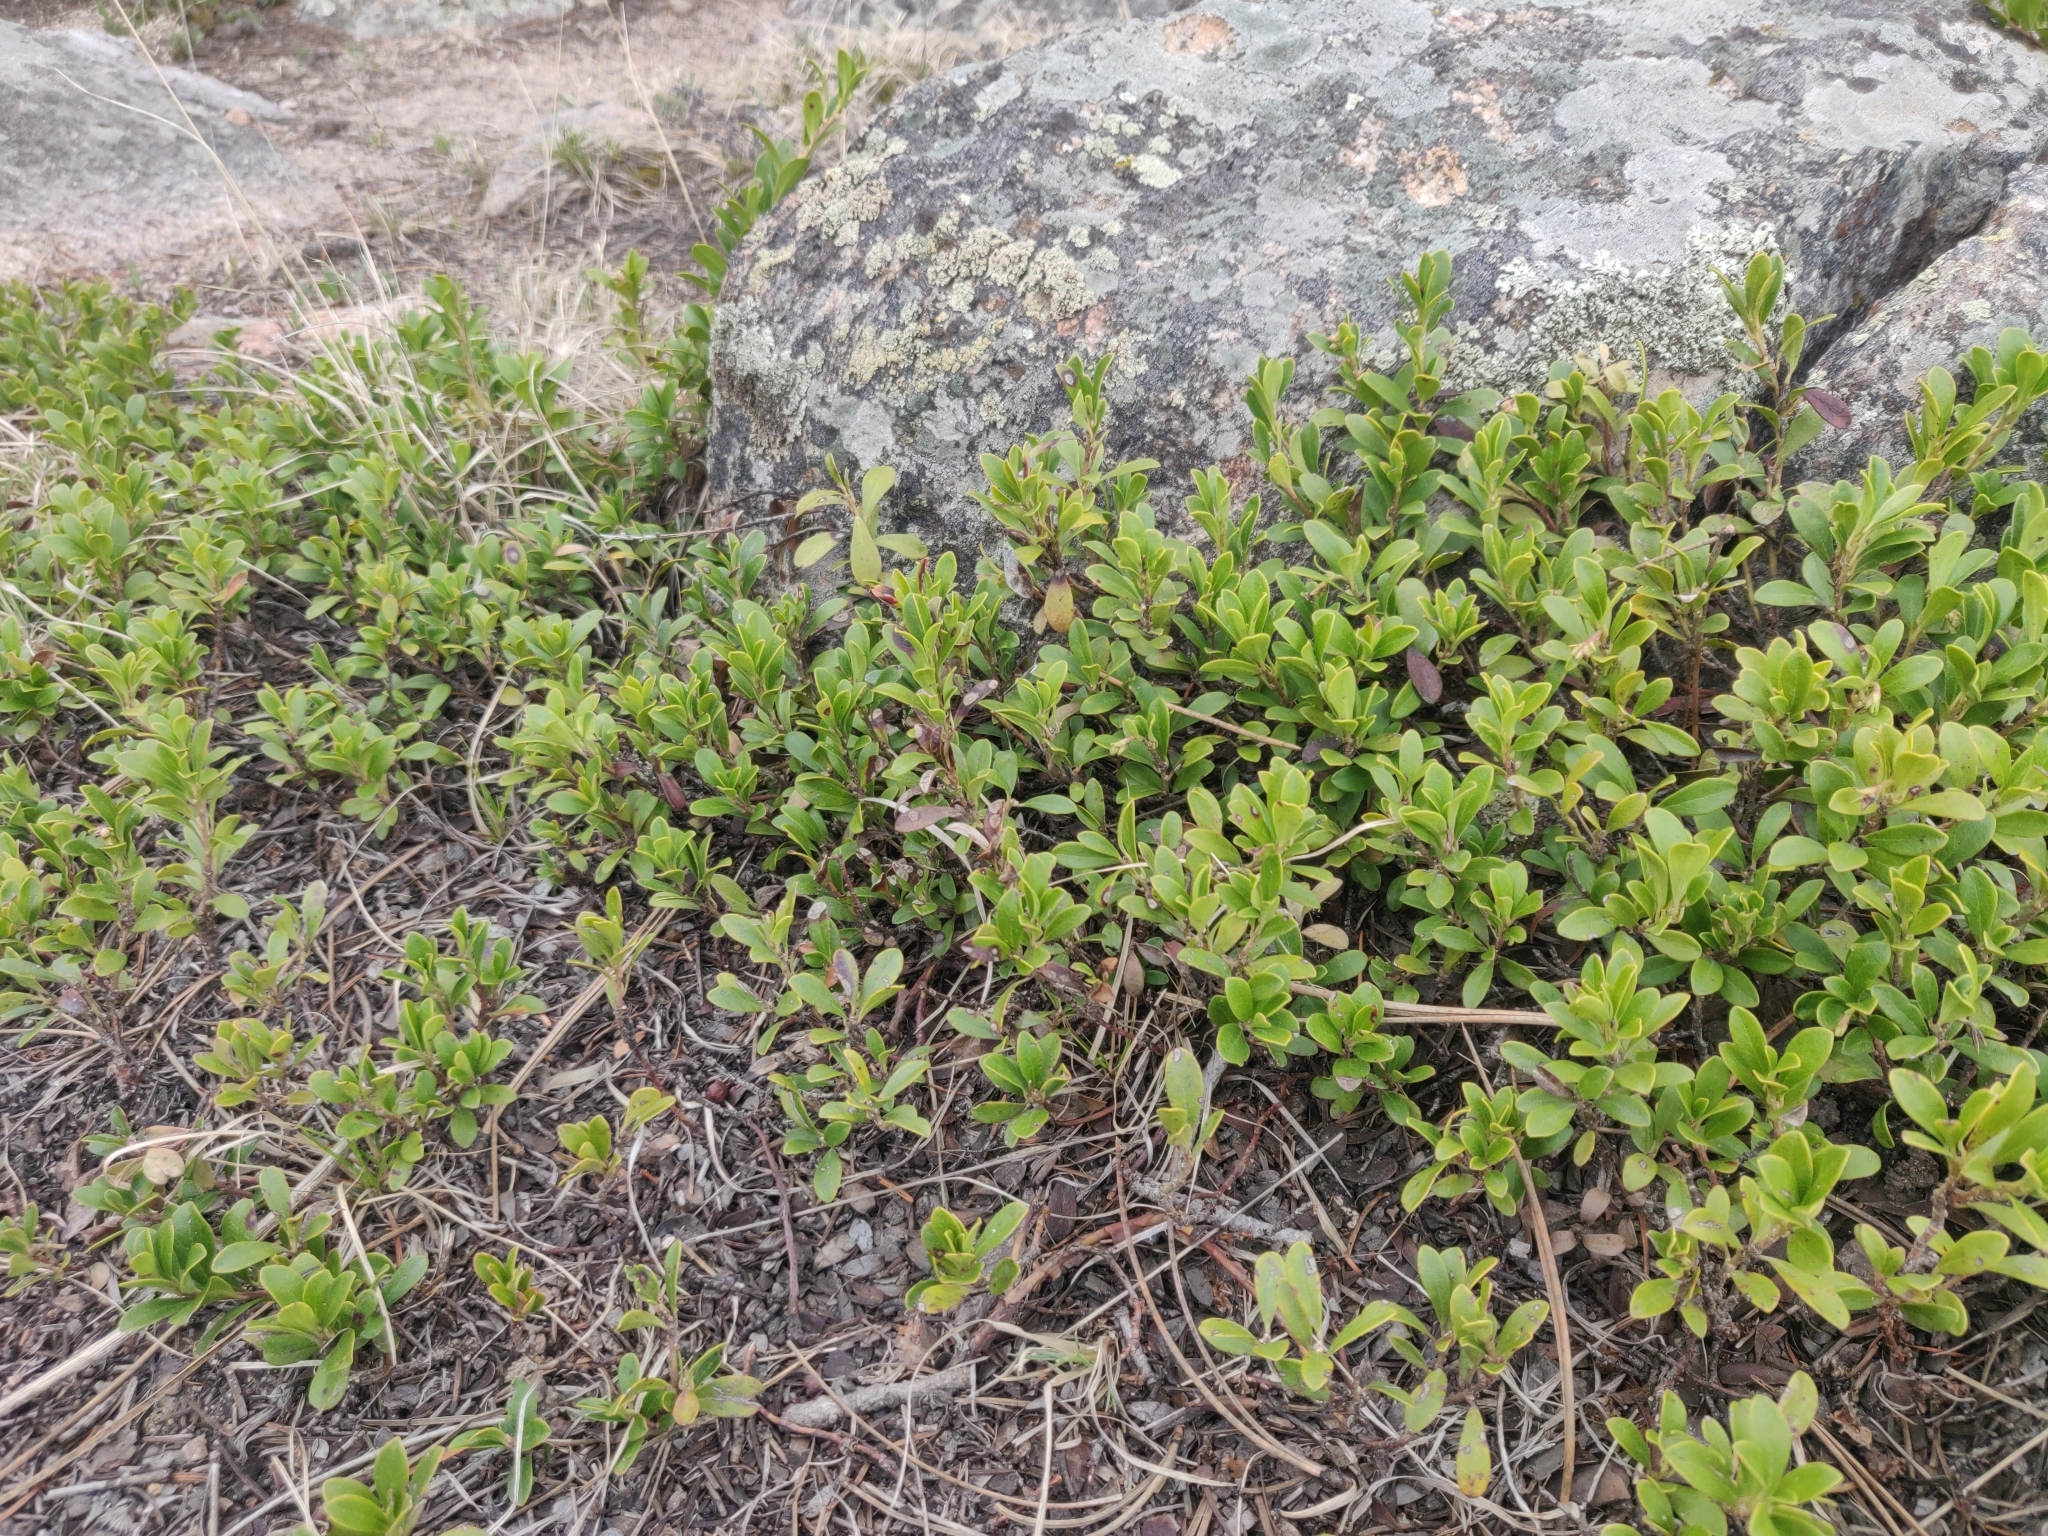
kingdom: Plantae
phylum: Tracheophyta
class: Magnoliopsida
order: Ericales
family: Ericaceae
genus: Arctostaphylos
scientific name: Arctostaphylos uva-ursi
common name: Bearberry
